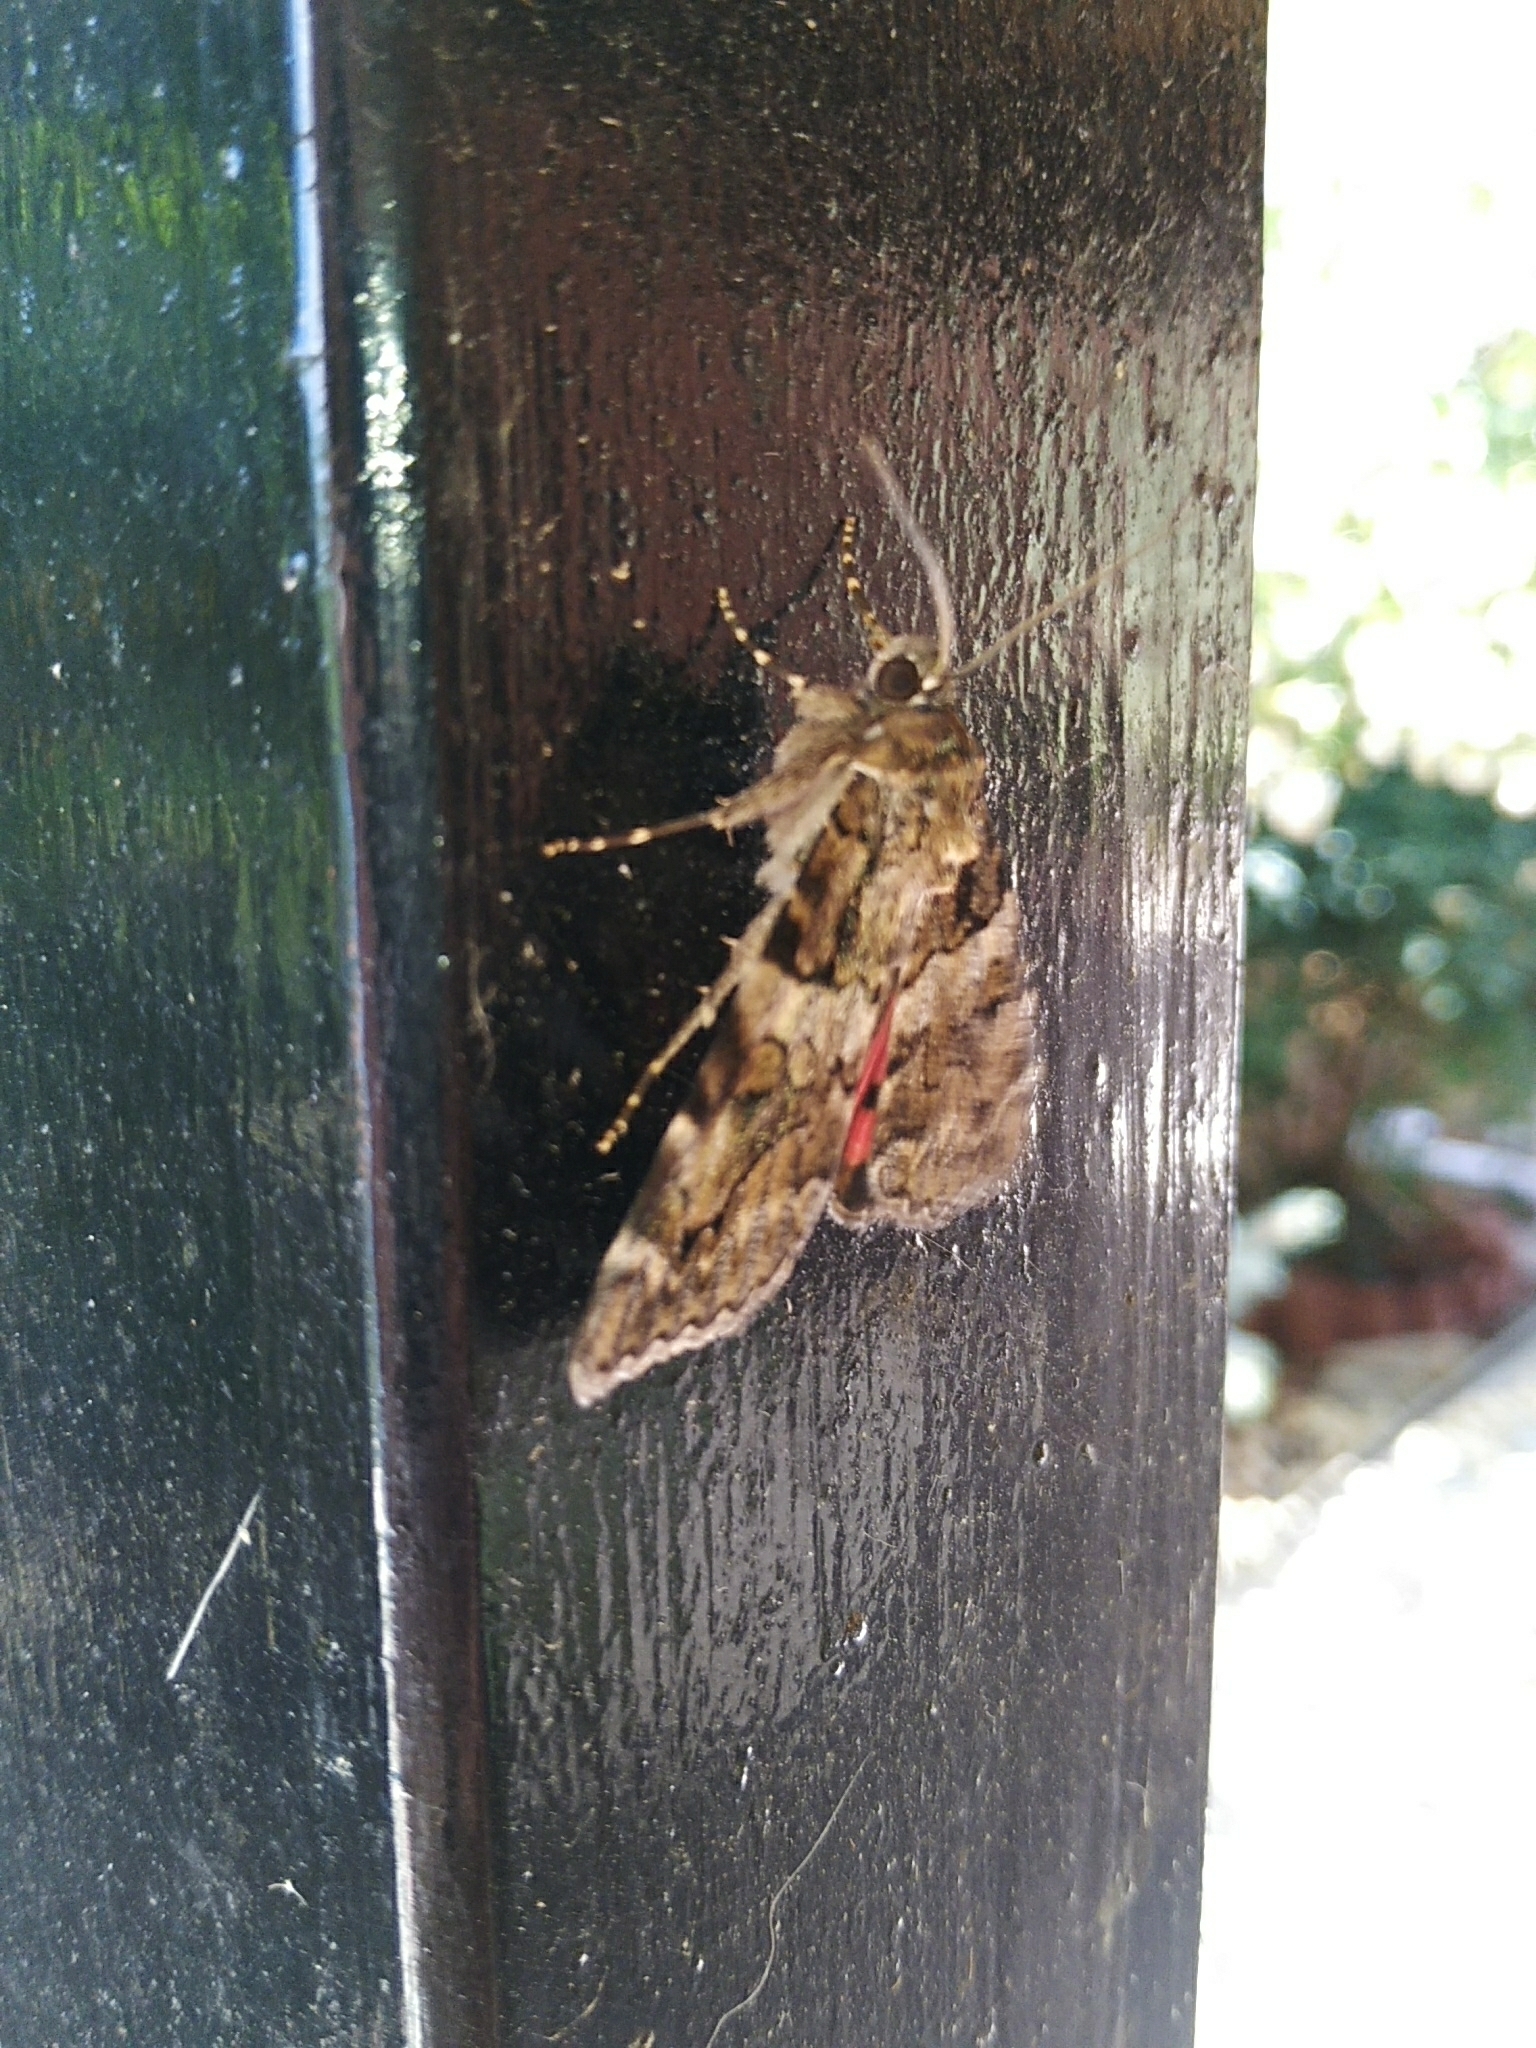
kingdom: Animalia
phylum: Arthropoda
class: Insecta
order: Lepidoptera
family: Erebidae
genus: Catocala
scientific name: Catocala coniuncta
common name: Minsmere crimson underwing
